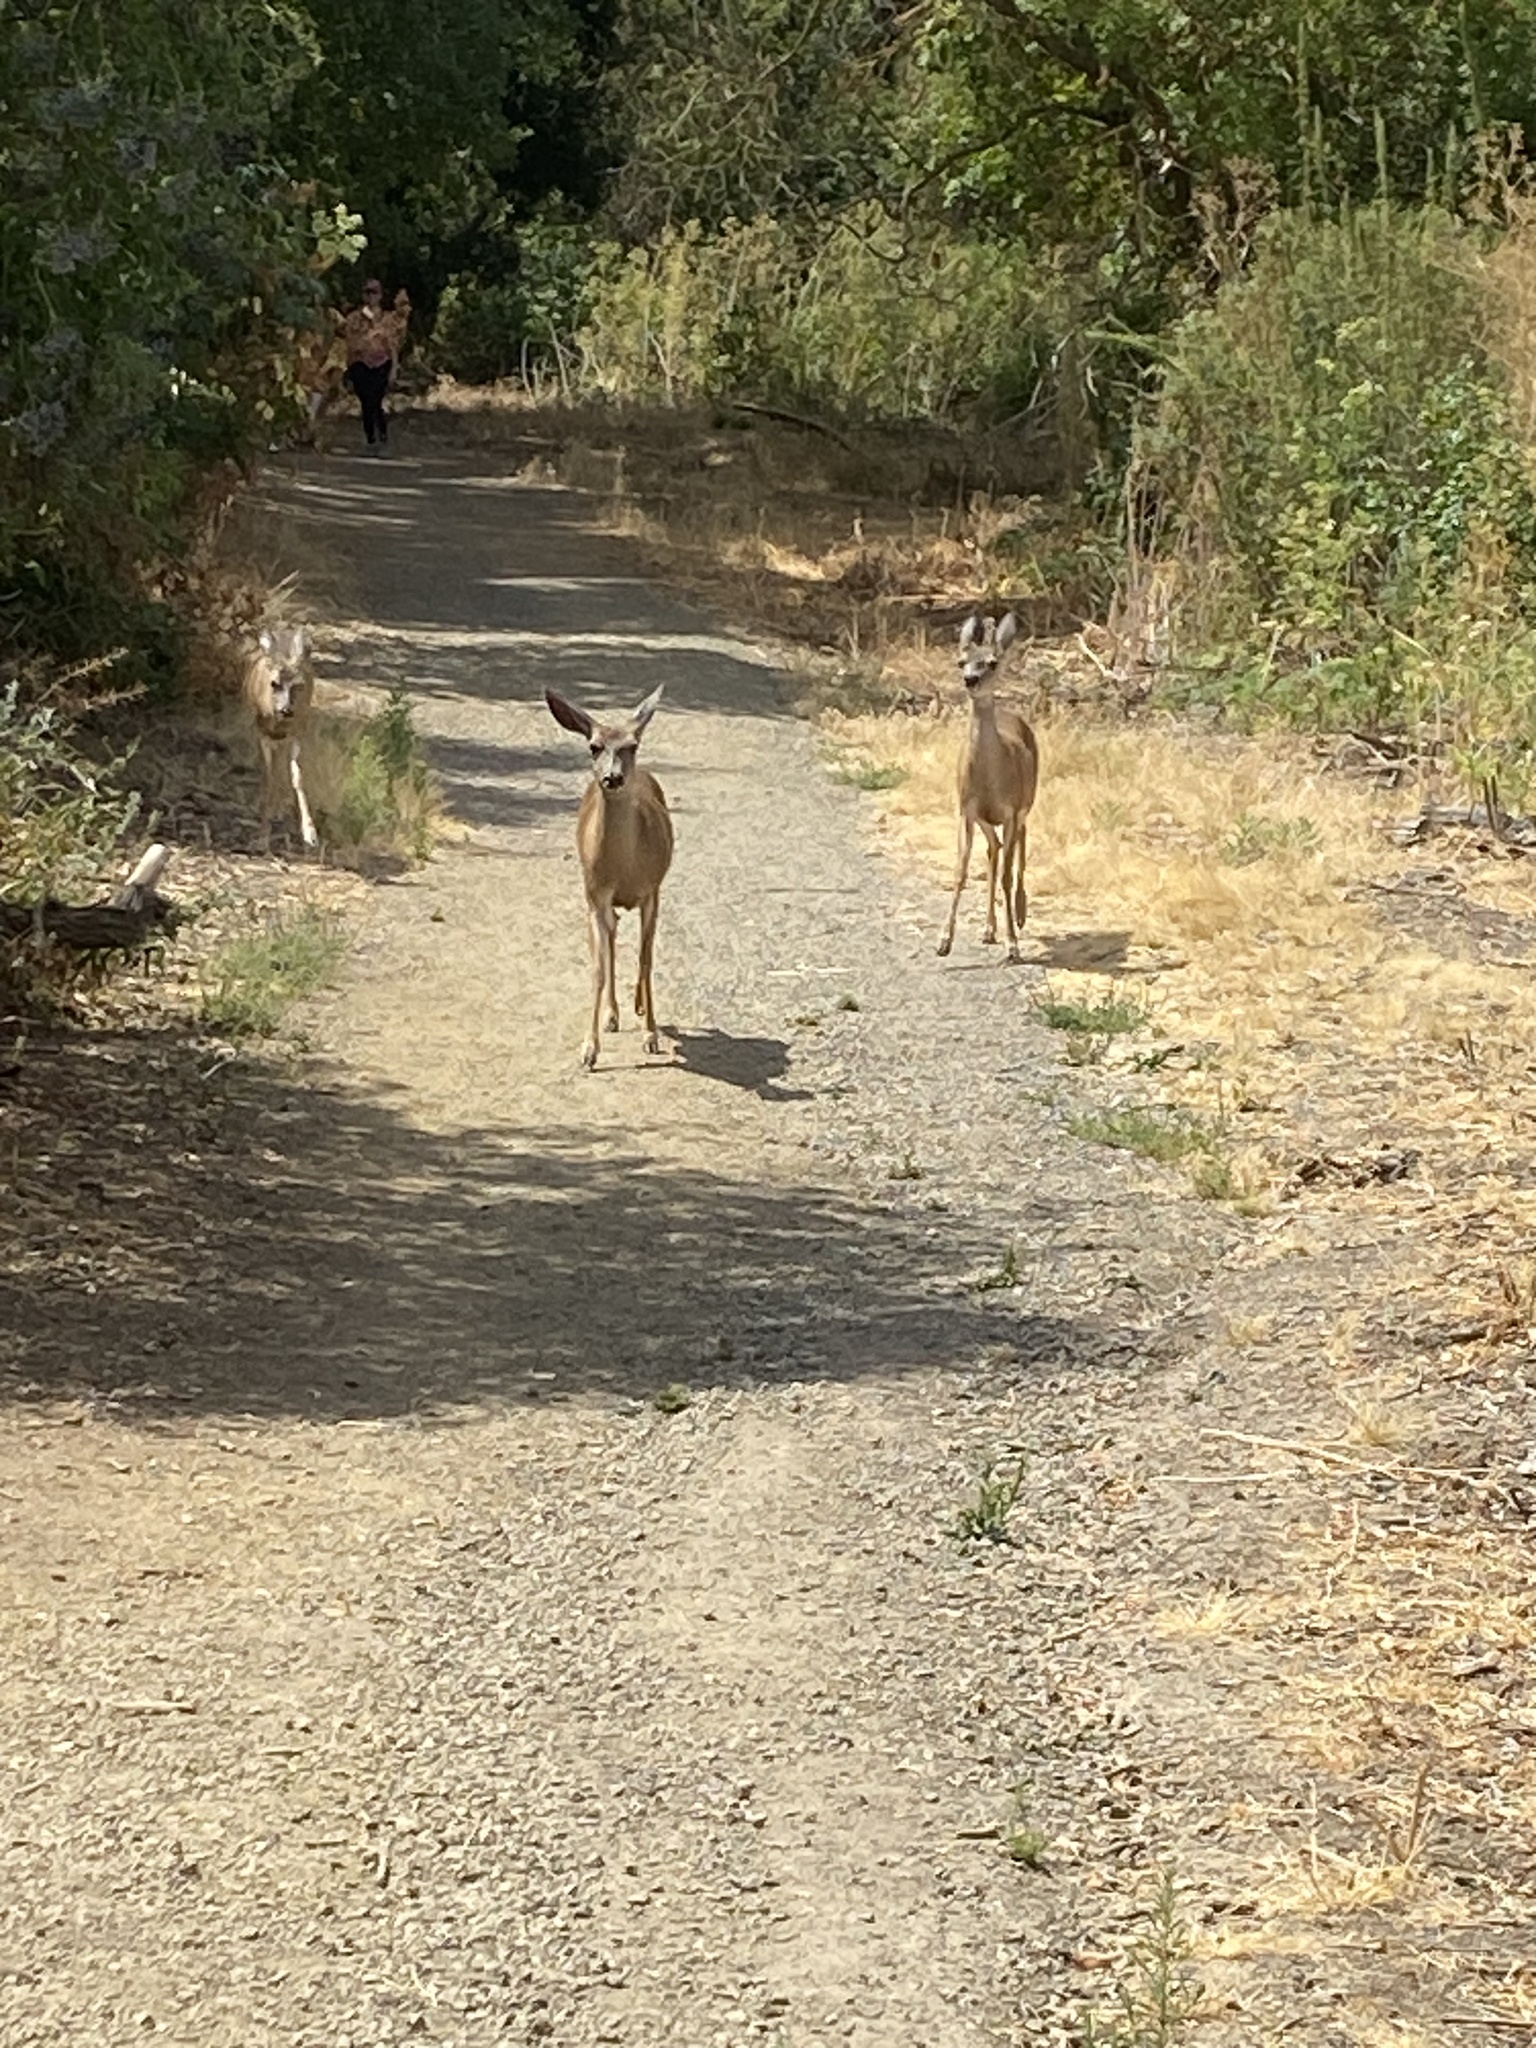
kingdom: Animalia
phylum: Chordata
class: Mammalia
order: Artiodactyla
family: Cervidae
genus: Odocoileus
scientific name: Odocoileus hemionus
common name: Mule deer
